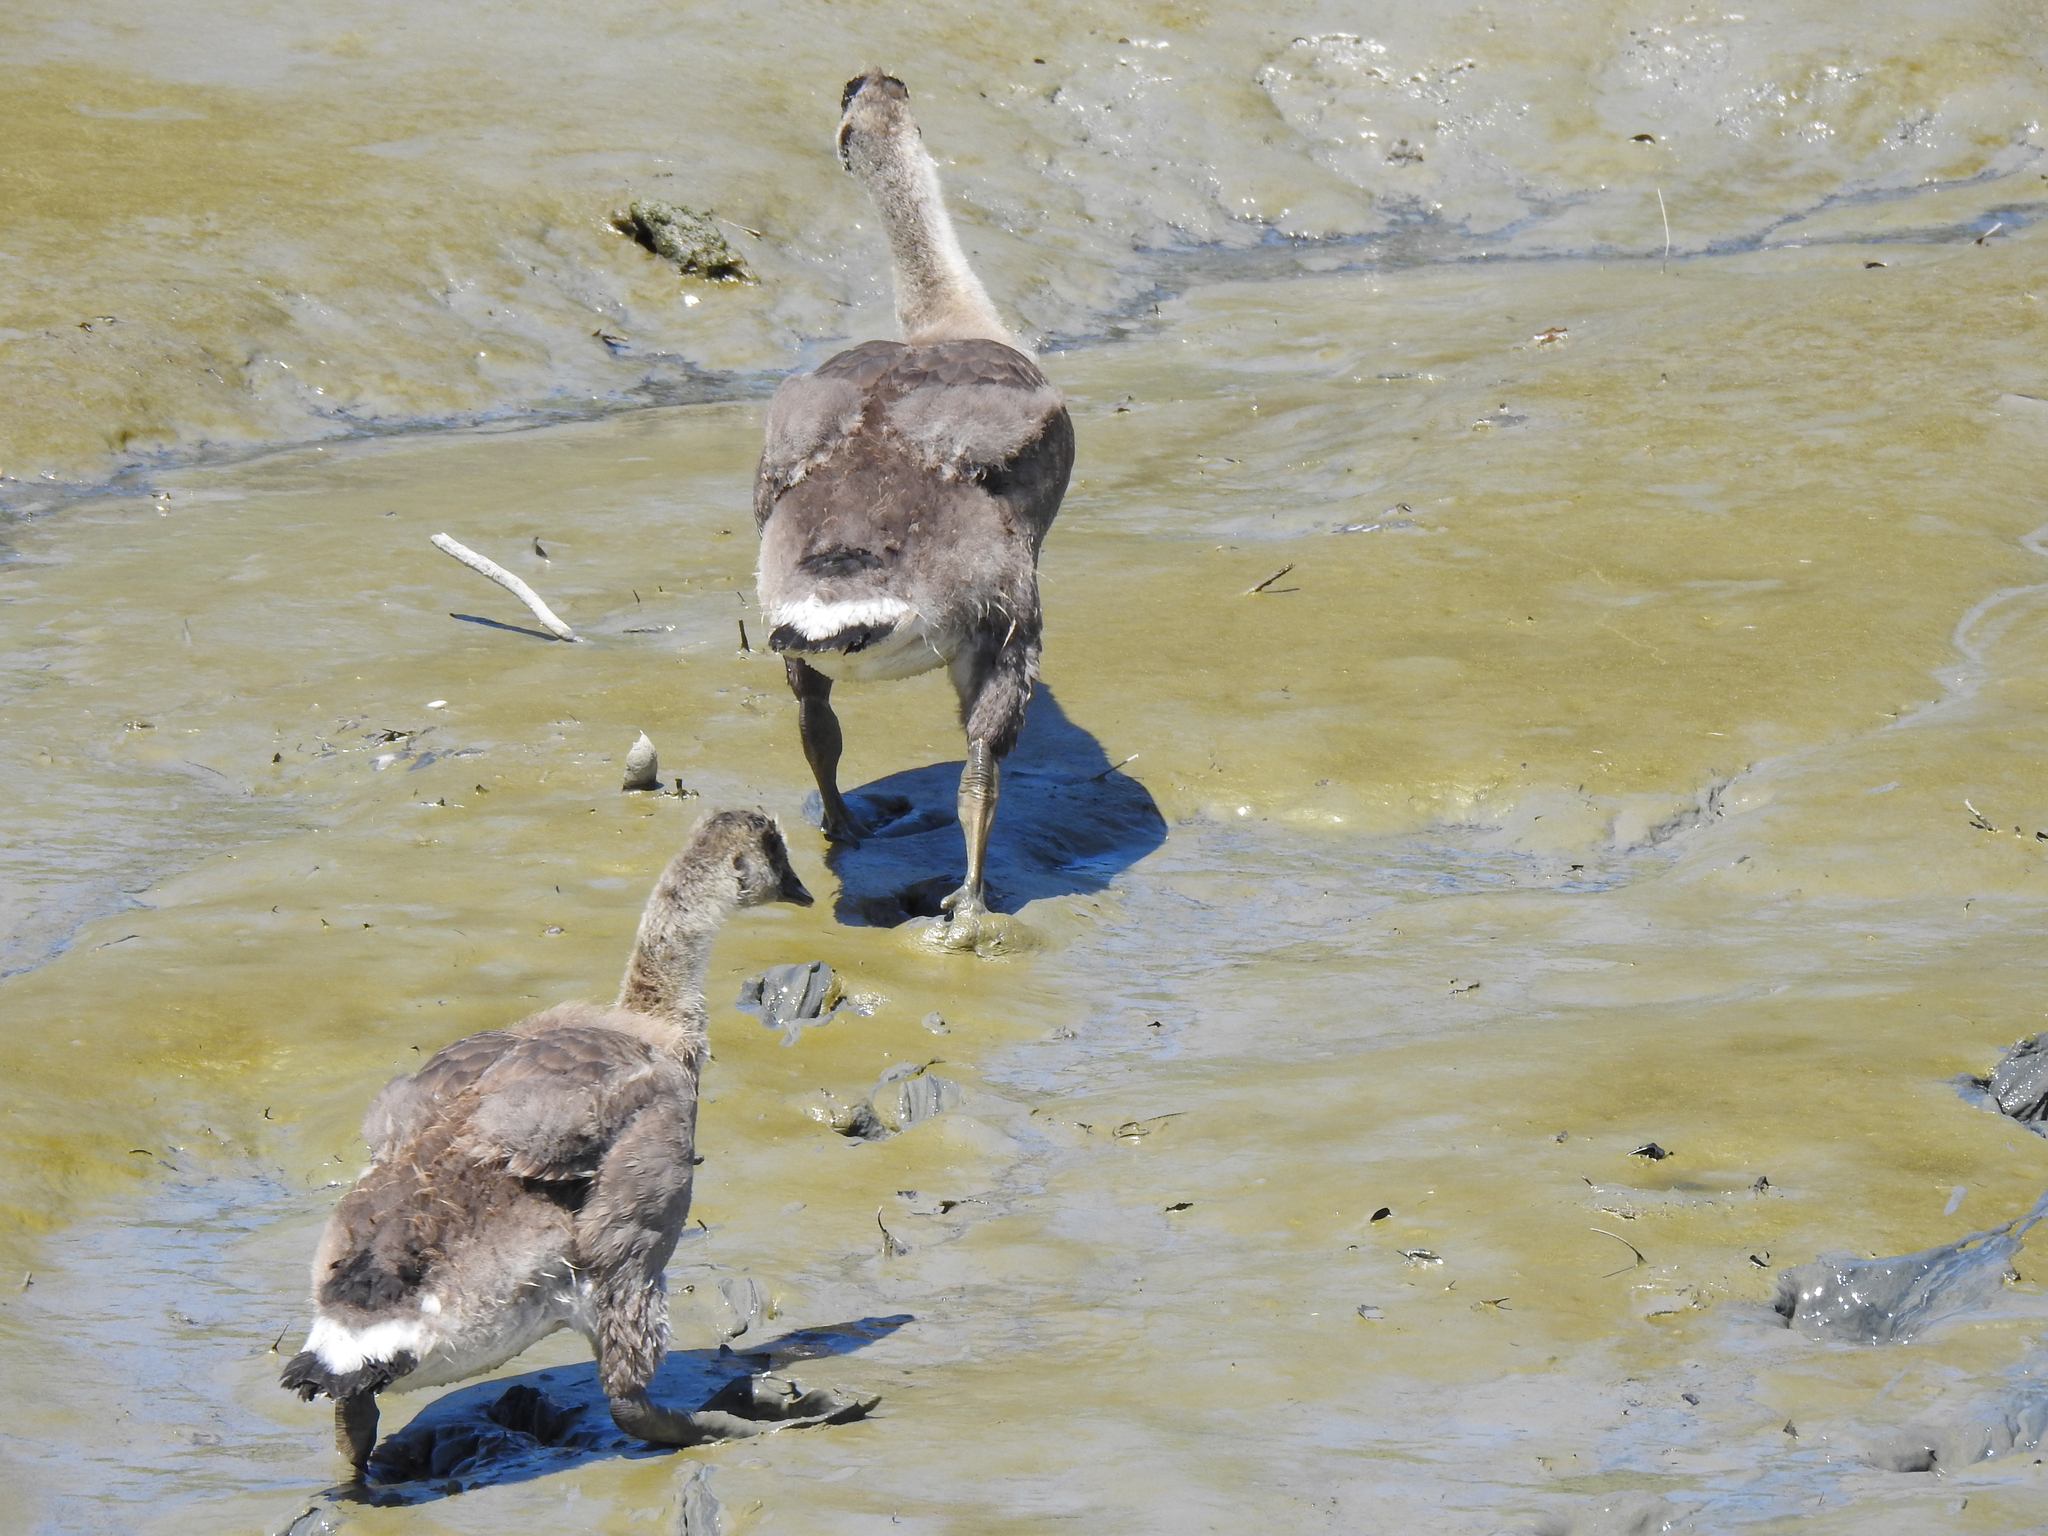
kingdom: Animalia
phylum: Chordata
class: Aves
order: Anseriformes
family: Anatidae
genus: Branta
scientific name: Branta canadensis
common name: Canada goose
